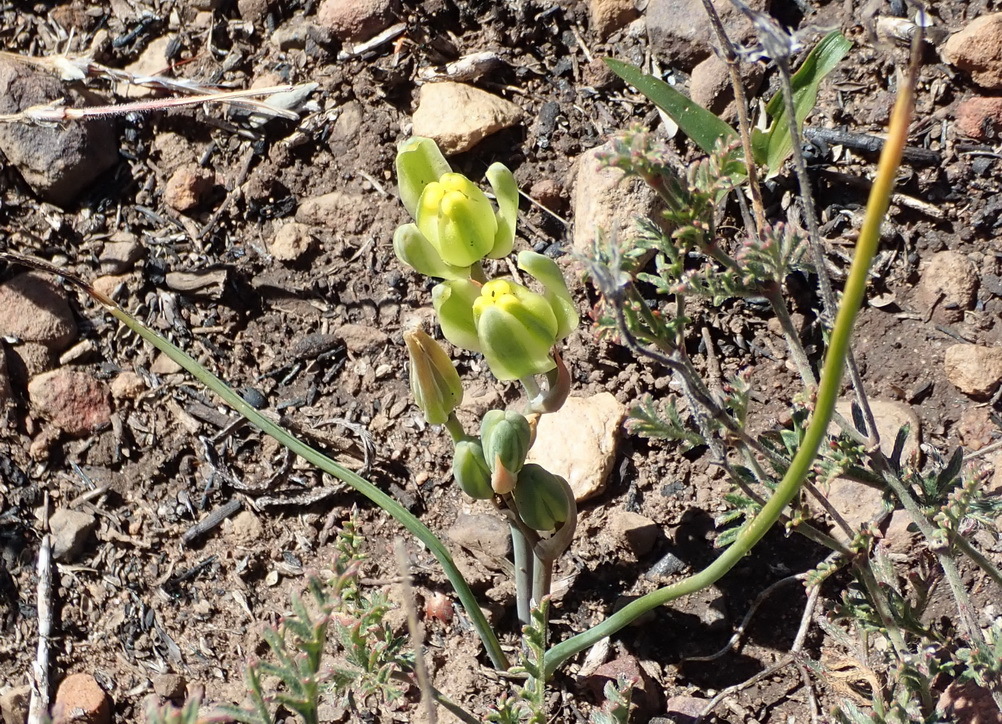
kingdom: Plantae
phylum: Tracheophyta
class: Liliopsida
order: Asparagales
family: Asparagaceae
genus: Albuca
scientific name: Albuca aurea
